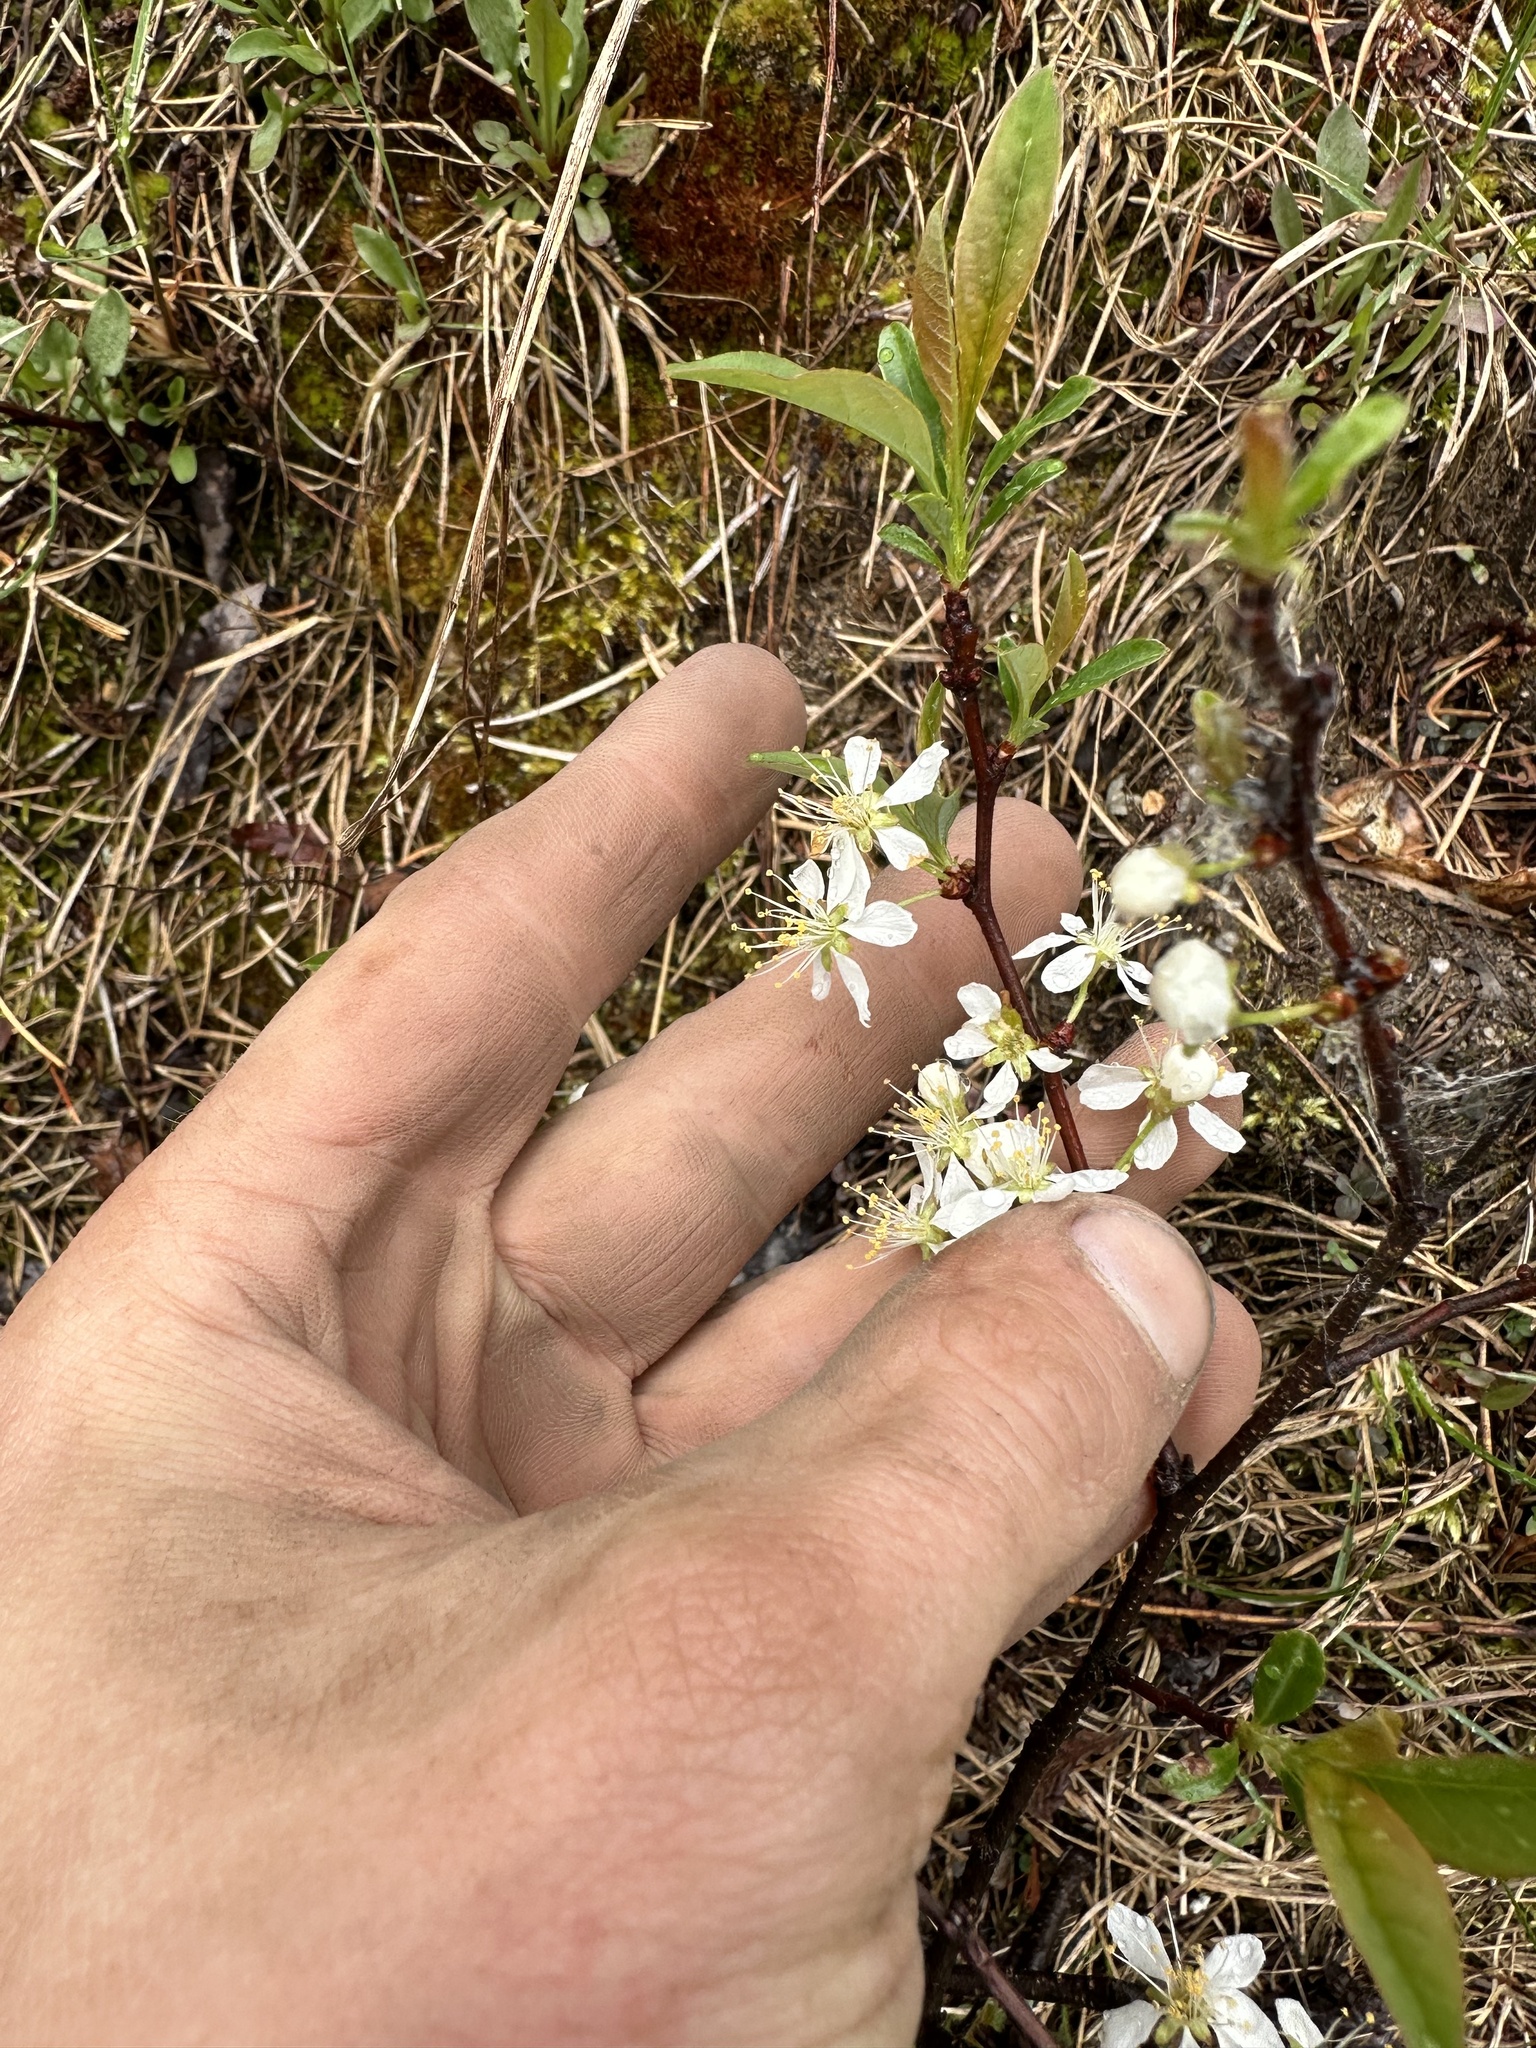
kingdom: Plantae
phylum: Tracheophyta
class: Magnoliopsida
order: Rosales
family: Rosaceae
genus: Prunus
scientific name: Prunus susquehanae
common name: Sesquehana sandcherry
